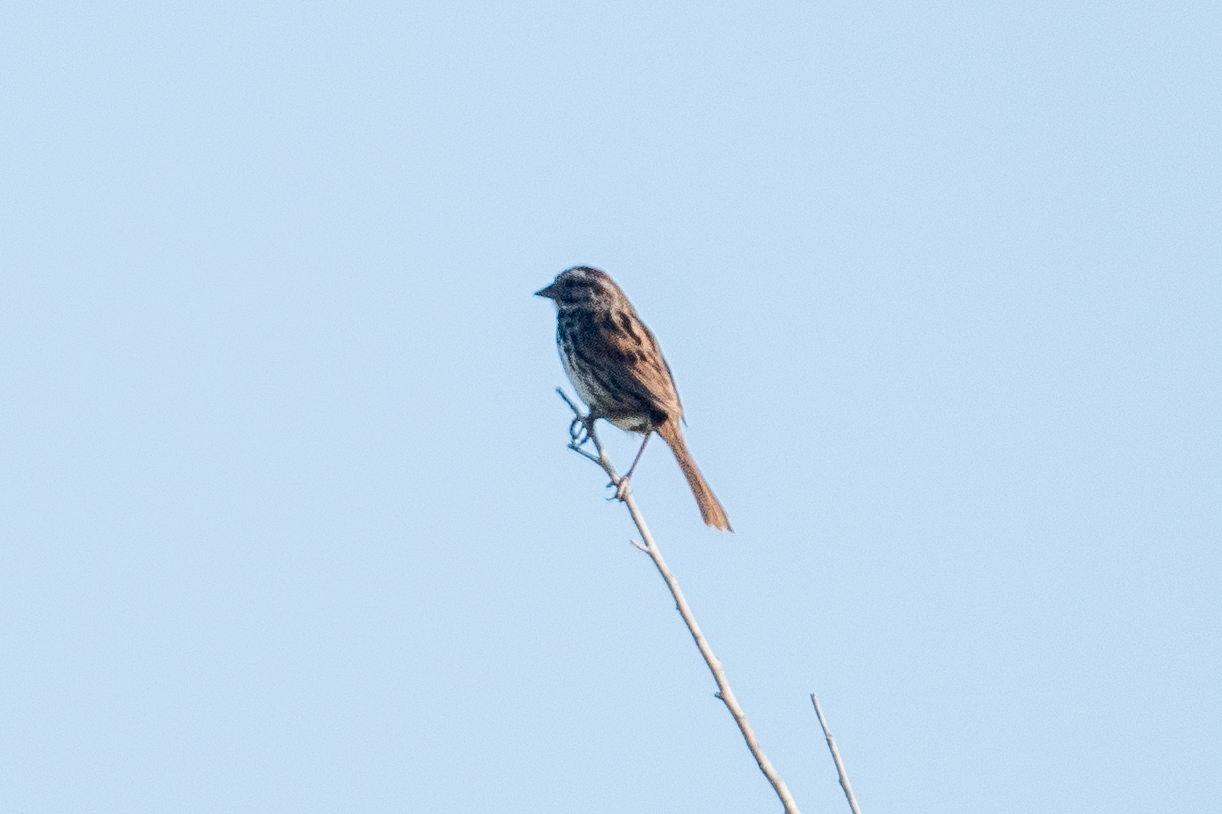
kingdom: Animalia
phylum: Chordata
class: Aves
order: Passeriformes
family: Passerellidae
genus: Melospiza
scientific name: Melospiza melodia
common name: Song sparrow
